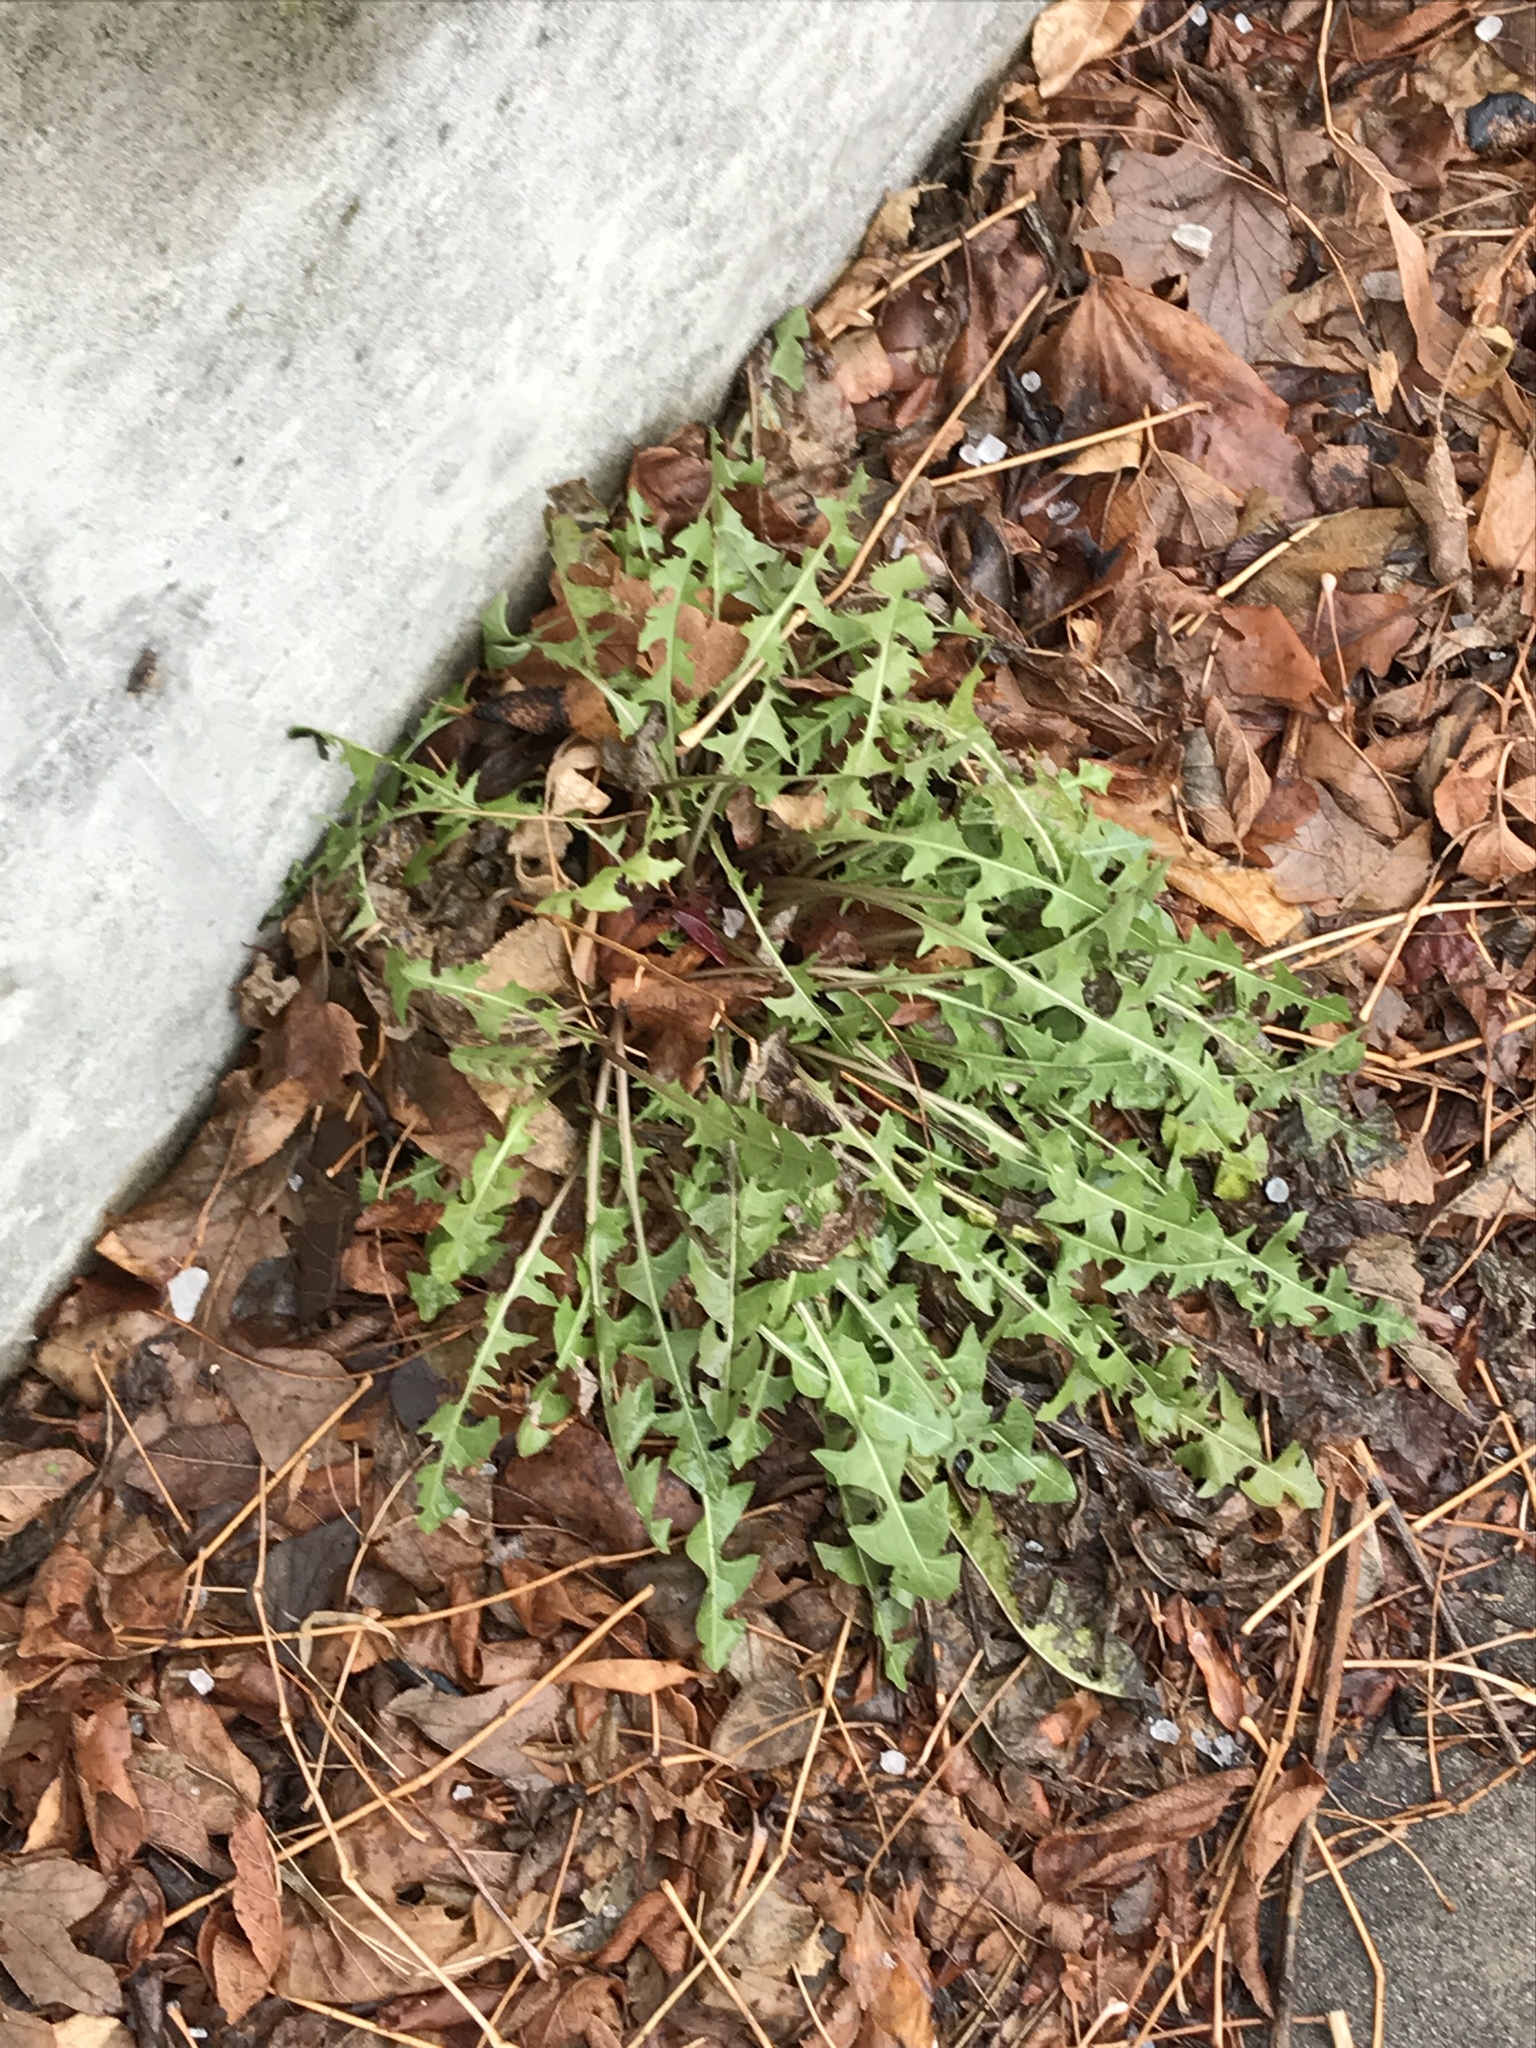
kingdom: Plantae
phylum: Tracheophyta
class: Magnoliopsida
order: Asterales
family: Asteraceae
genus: Taraxacum
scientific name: Taraxacum officinale
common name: Common dandelion
